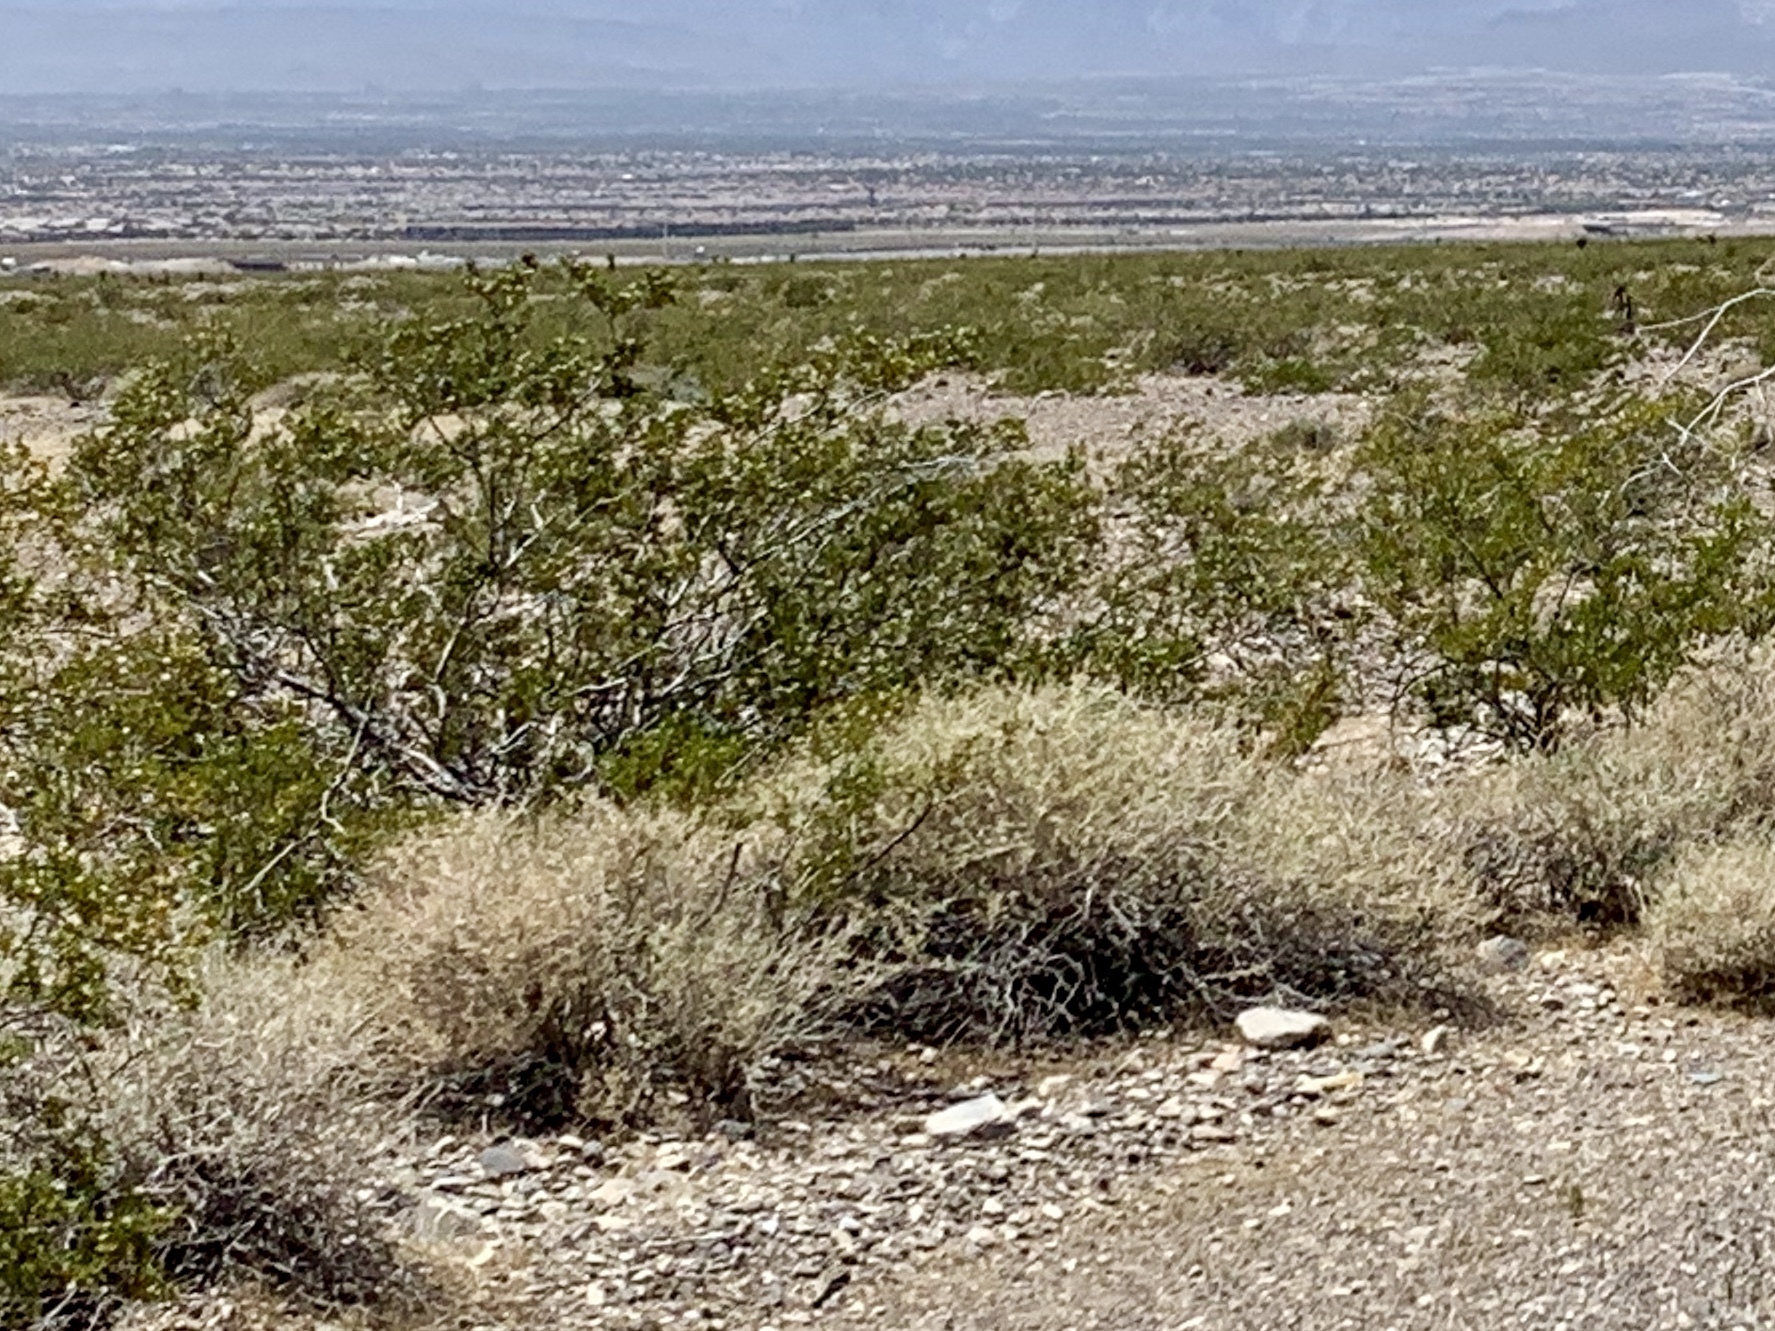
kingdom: Plantae
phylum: Tracheophyta
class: Magnoliopsida
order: Zygophyllales
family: Zygophyllaceae
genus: Larrea
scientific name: Larrea tridentata
